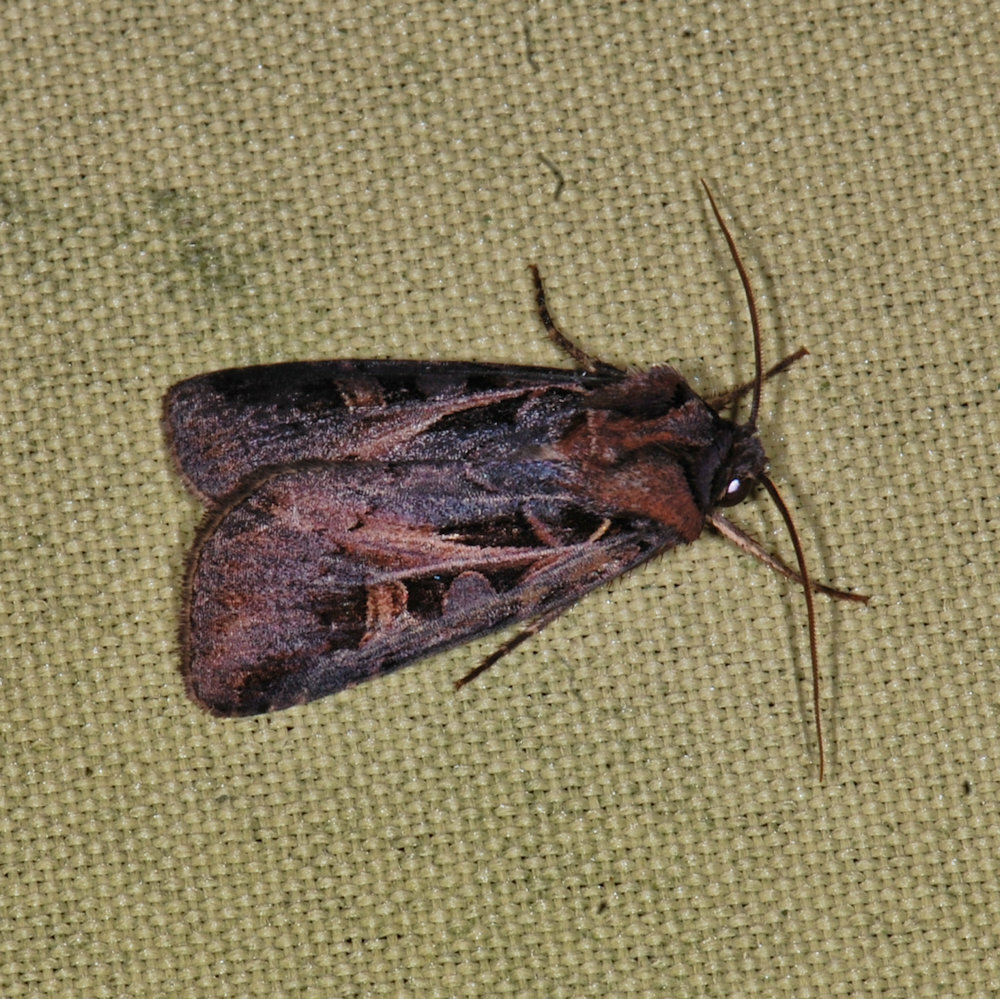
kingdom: Animalia
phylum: Arthropoda
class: Insecta
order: Lepidoptera
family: Noctuidae
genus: Feltia
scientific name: Feltia herilis
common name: Master's dart
